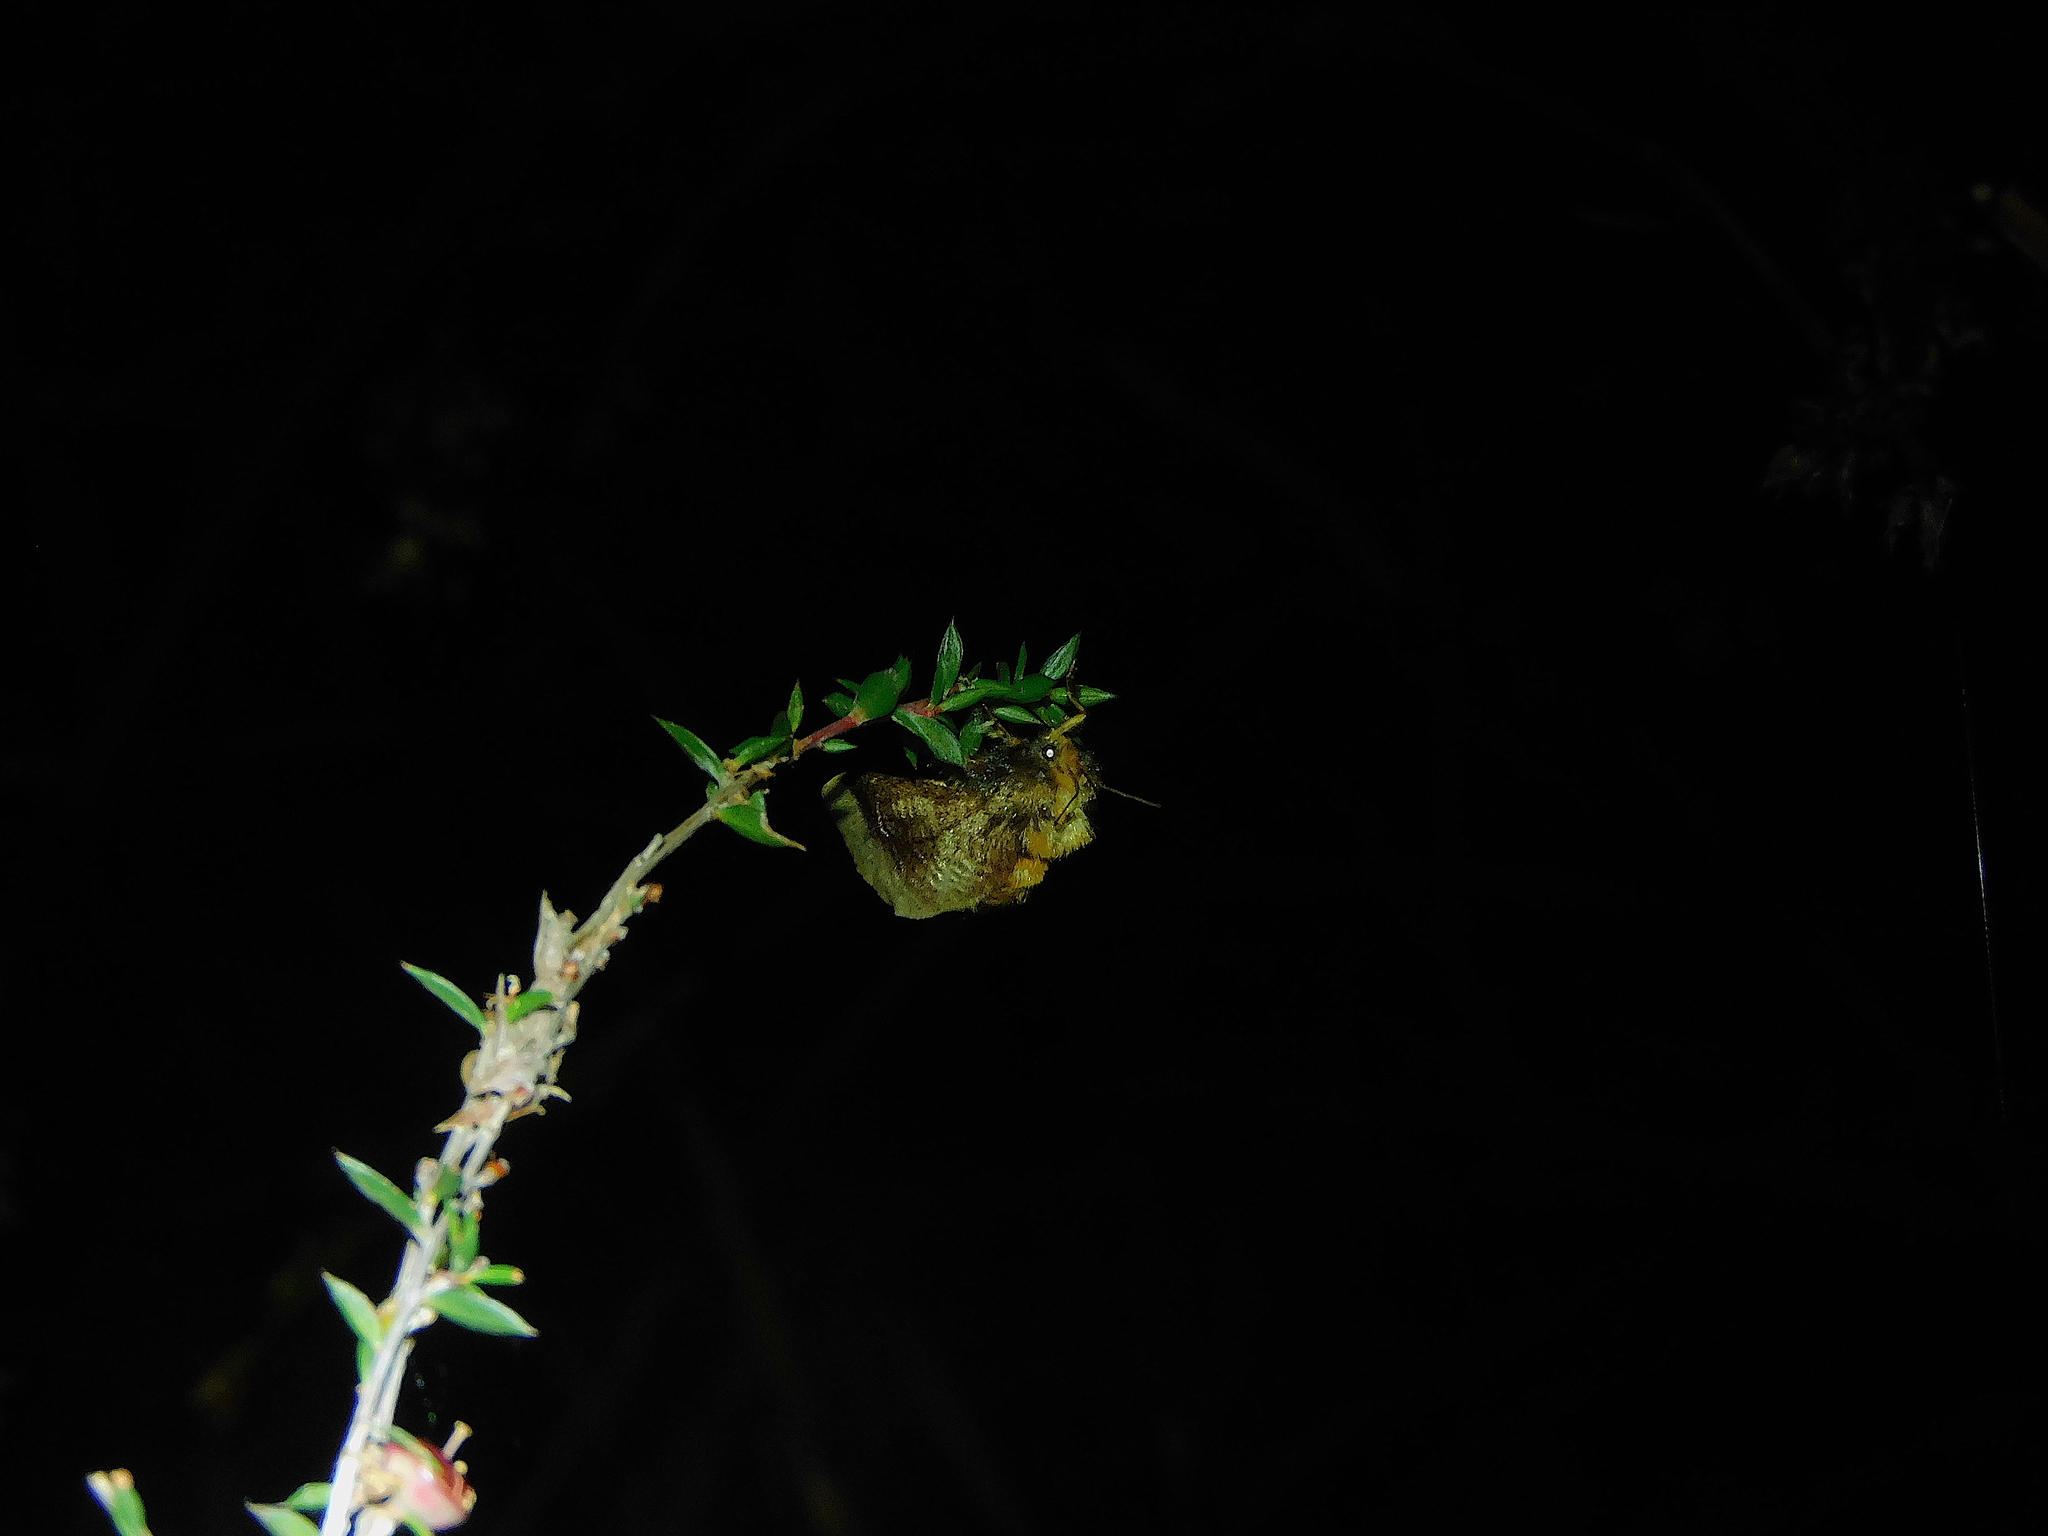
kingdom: Animalia
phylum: Arthropoda
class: Insecta
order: Lepidoptera
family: Limacodidae
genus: Doratifera
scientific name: Doratifera oxleyi
